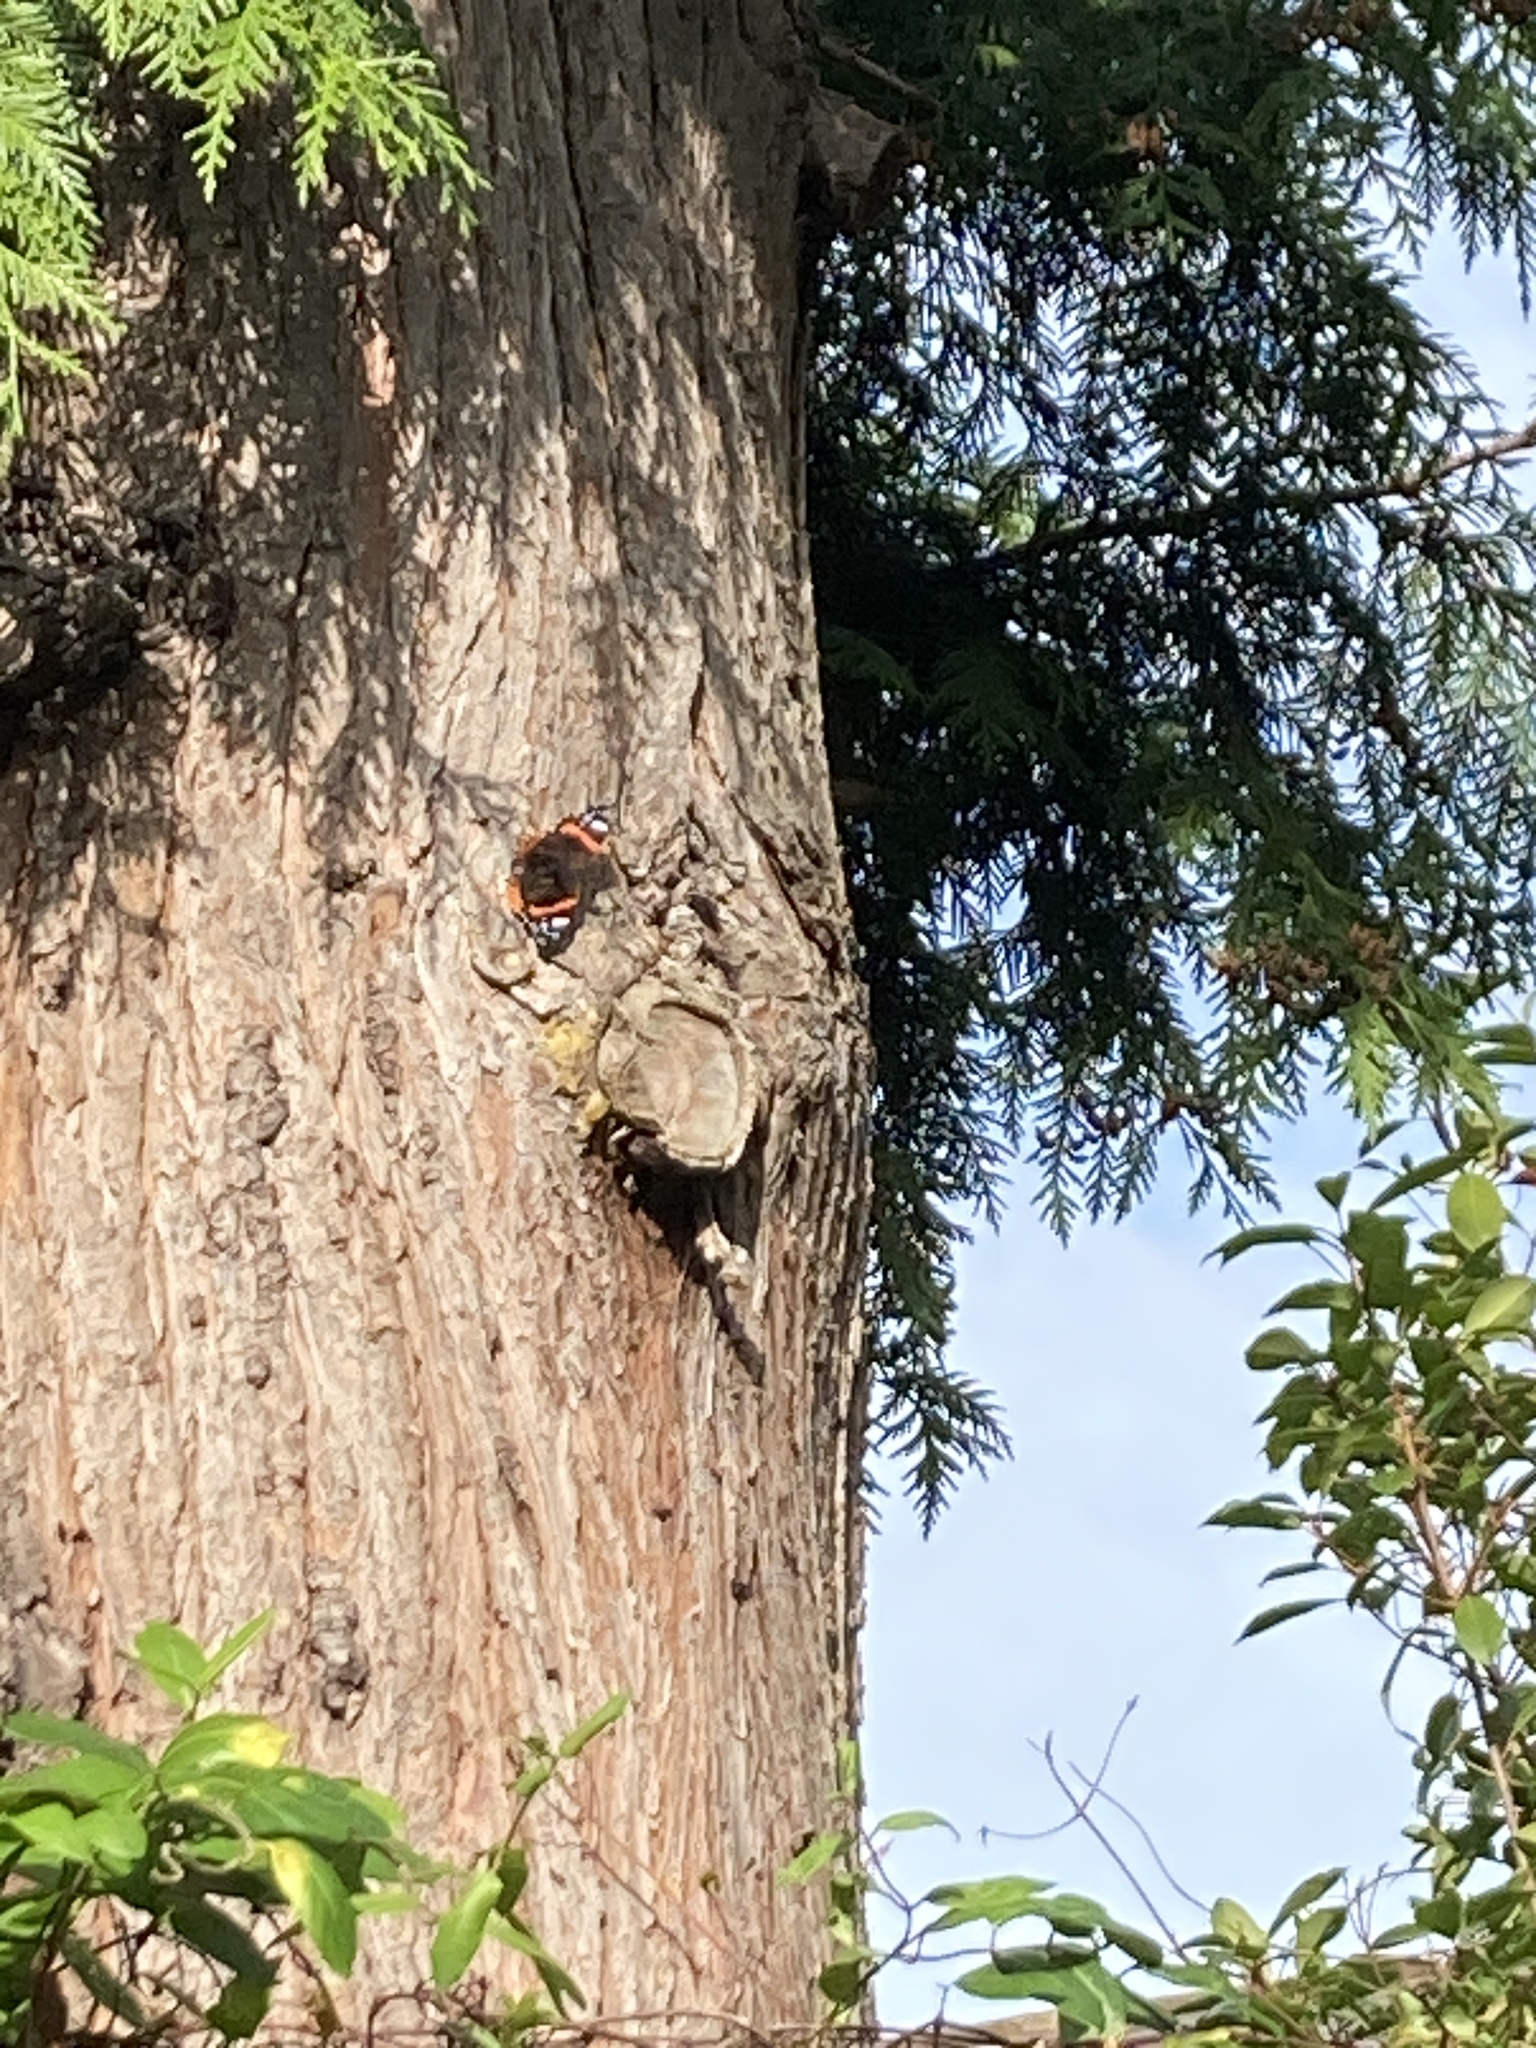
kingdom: Animalia
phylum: Arthropoda
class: Insecta
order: Lepidoptera
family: Nymphalidae
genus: Vanessa
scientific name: Vanessa atalanta
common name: Red admiral
